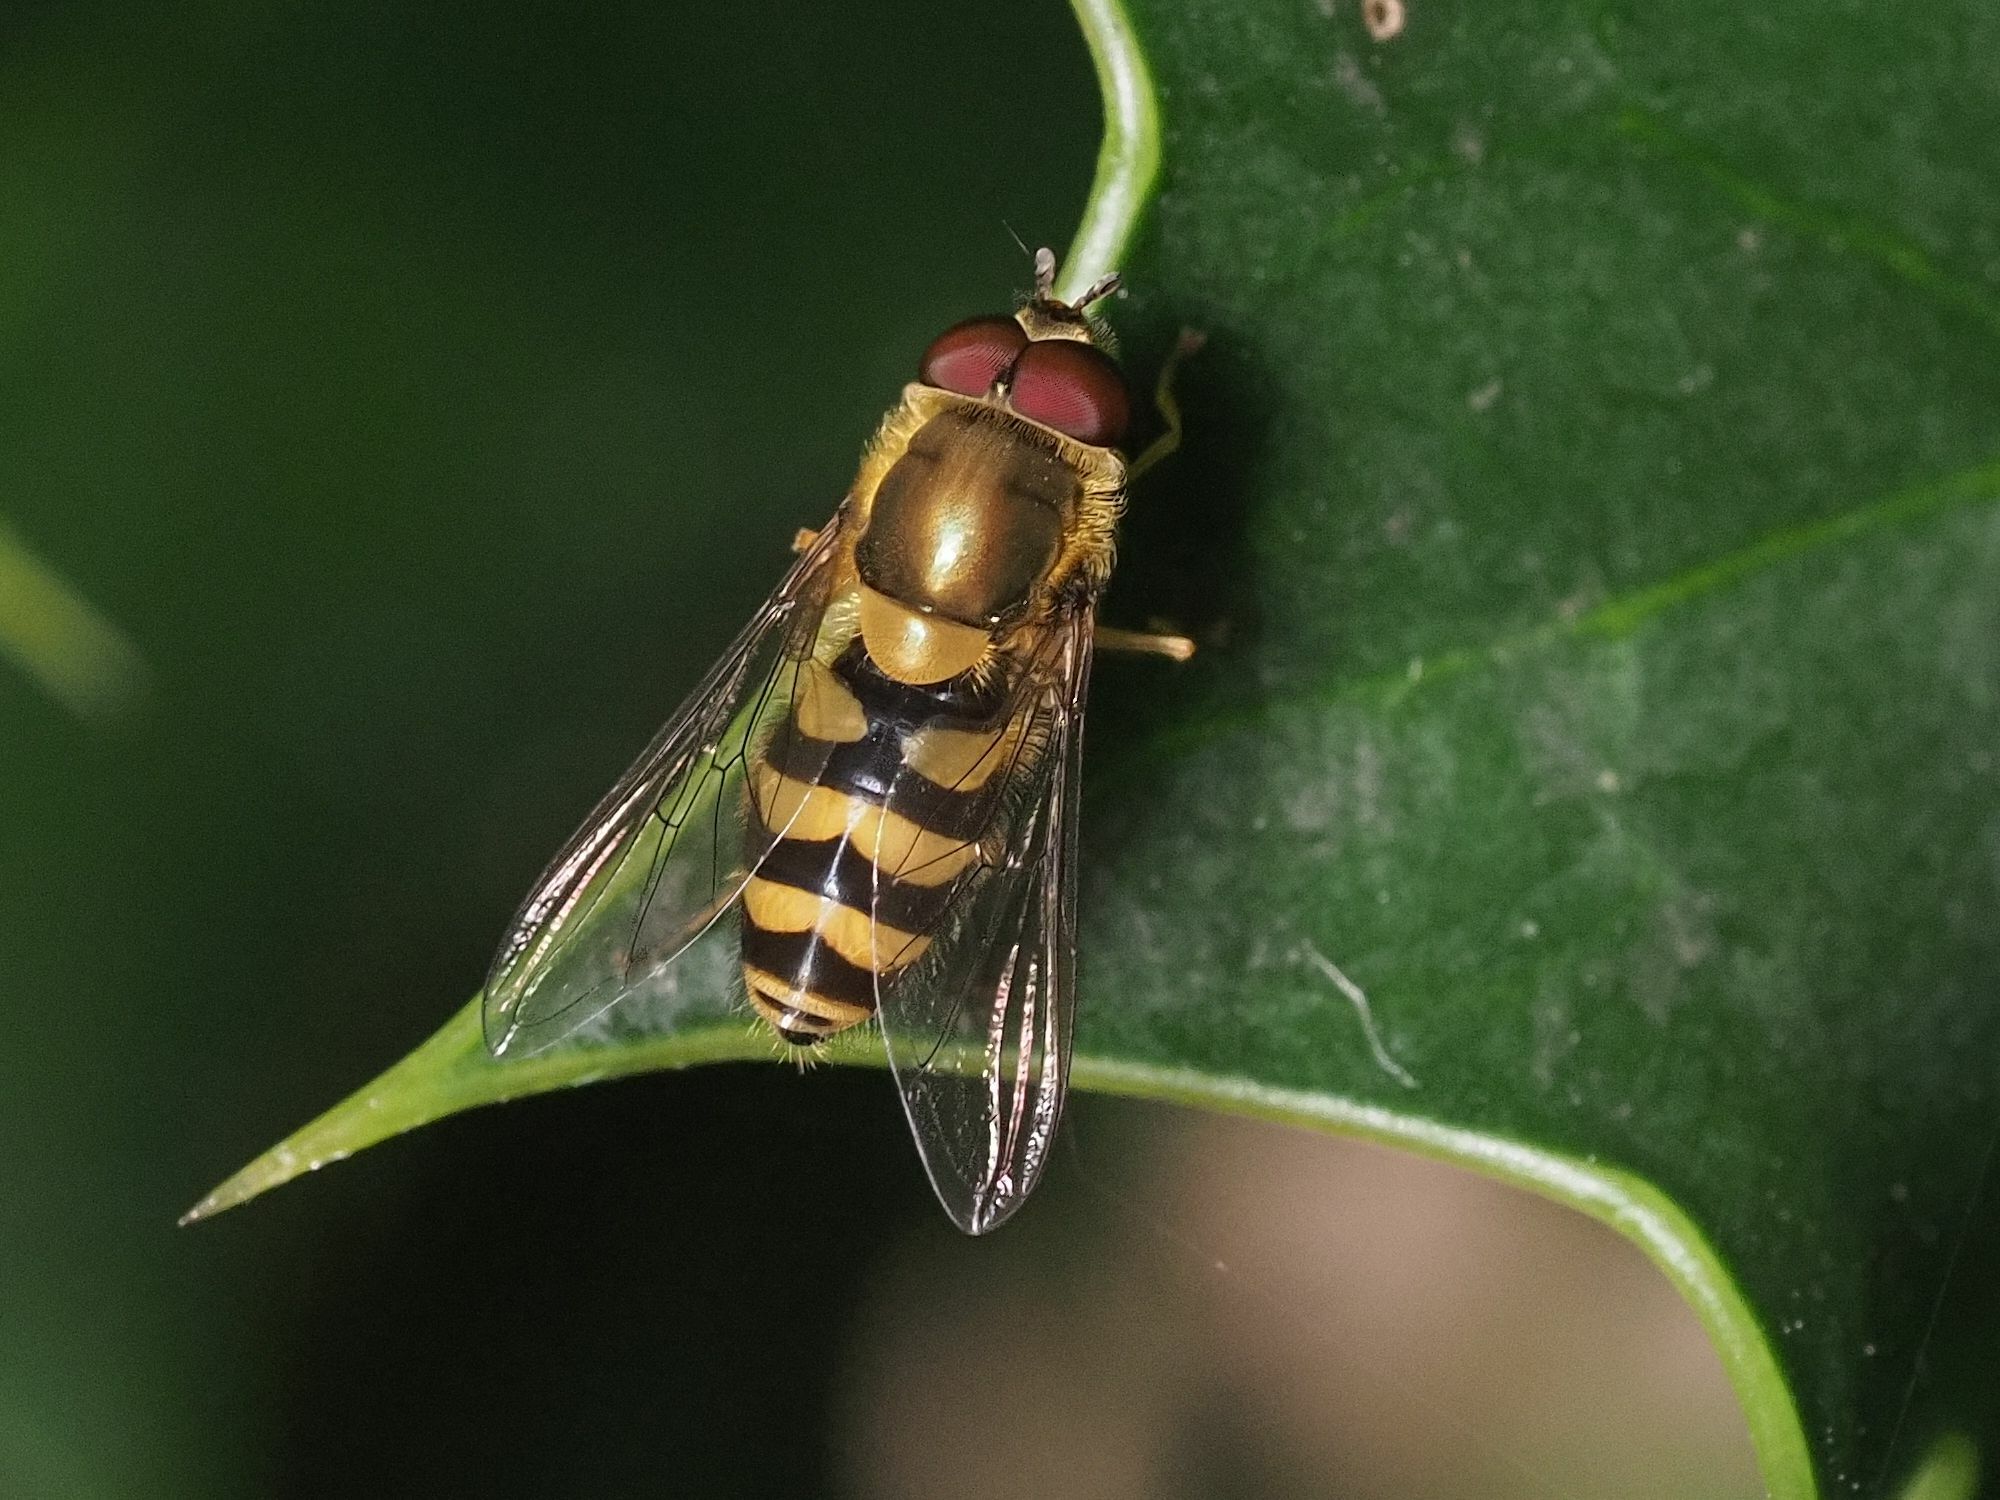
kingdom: Animalia
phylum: Arthropoda
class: Insecta
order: Diptera
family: Syrphidae
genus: Syrphus
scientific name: Syrphus
